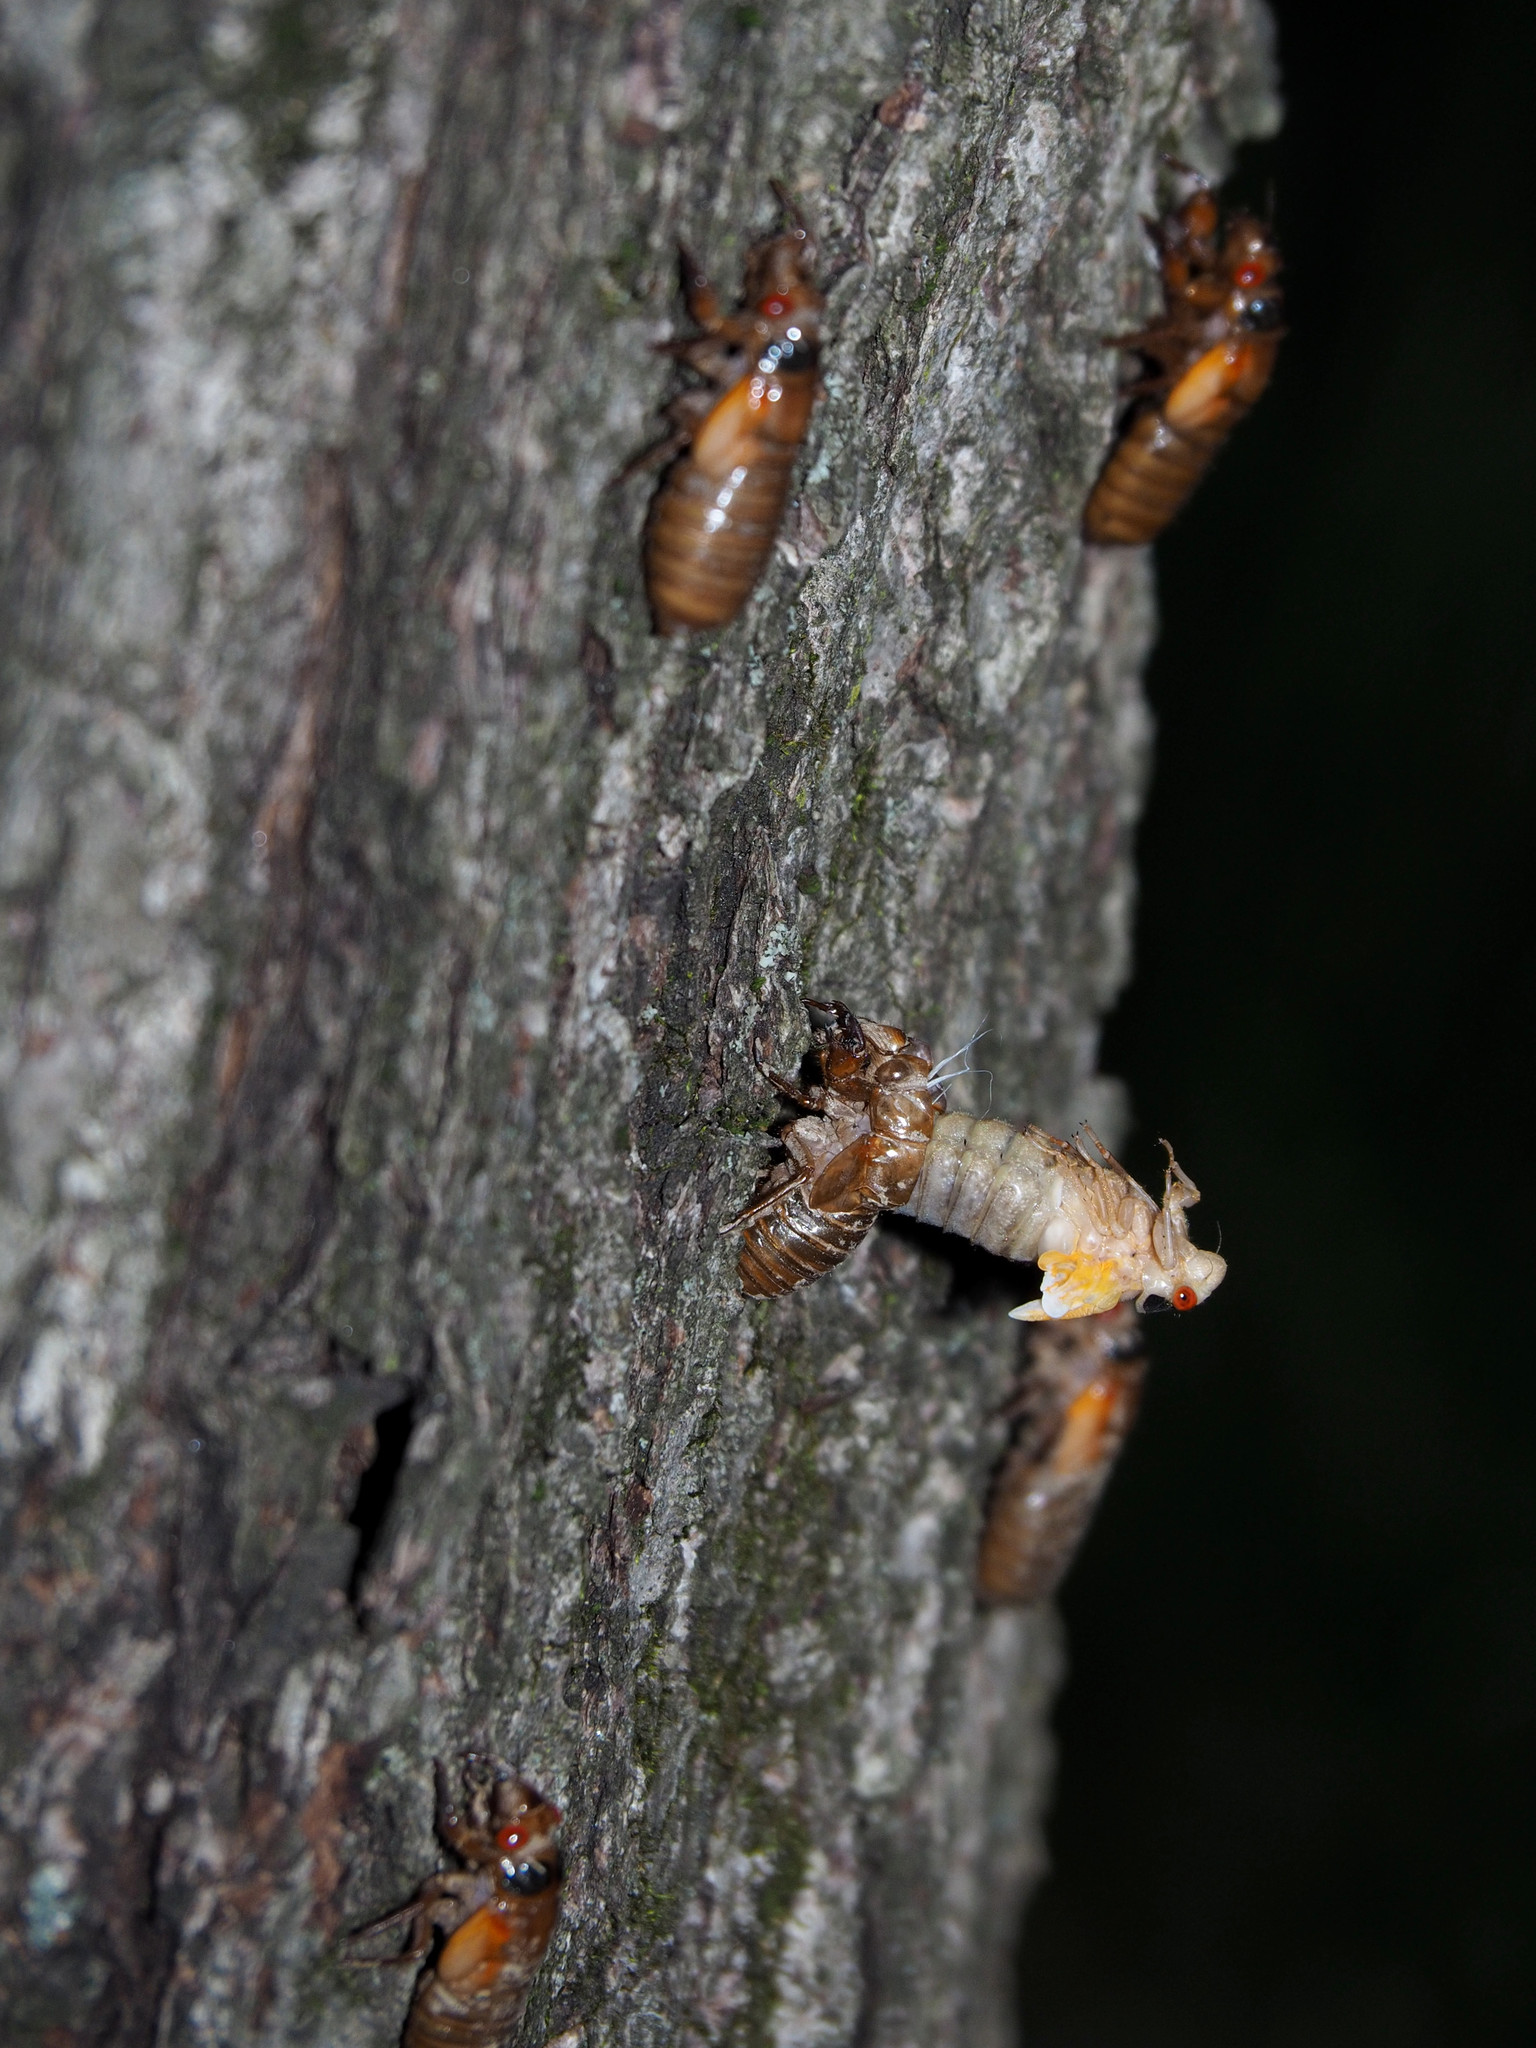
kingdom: Animalia
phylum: Arthropoda
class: Insecta
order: Hemiptera
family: Cicadidae
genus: Magicicada
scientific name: Magicicada
